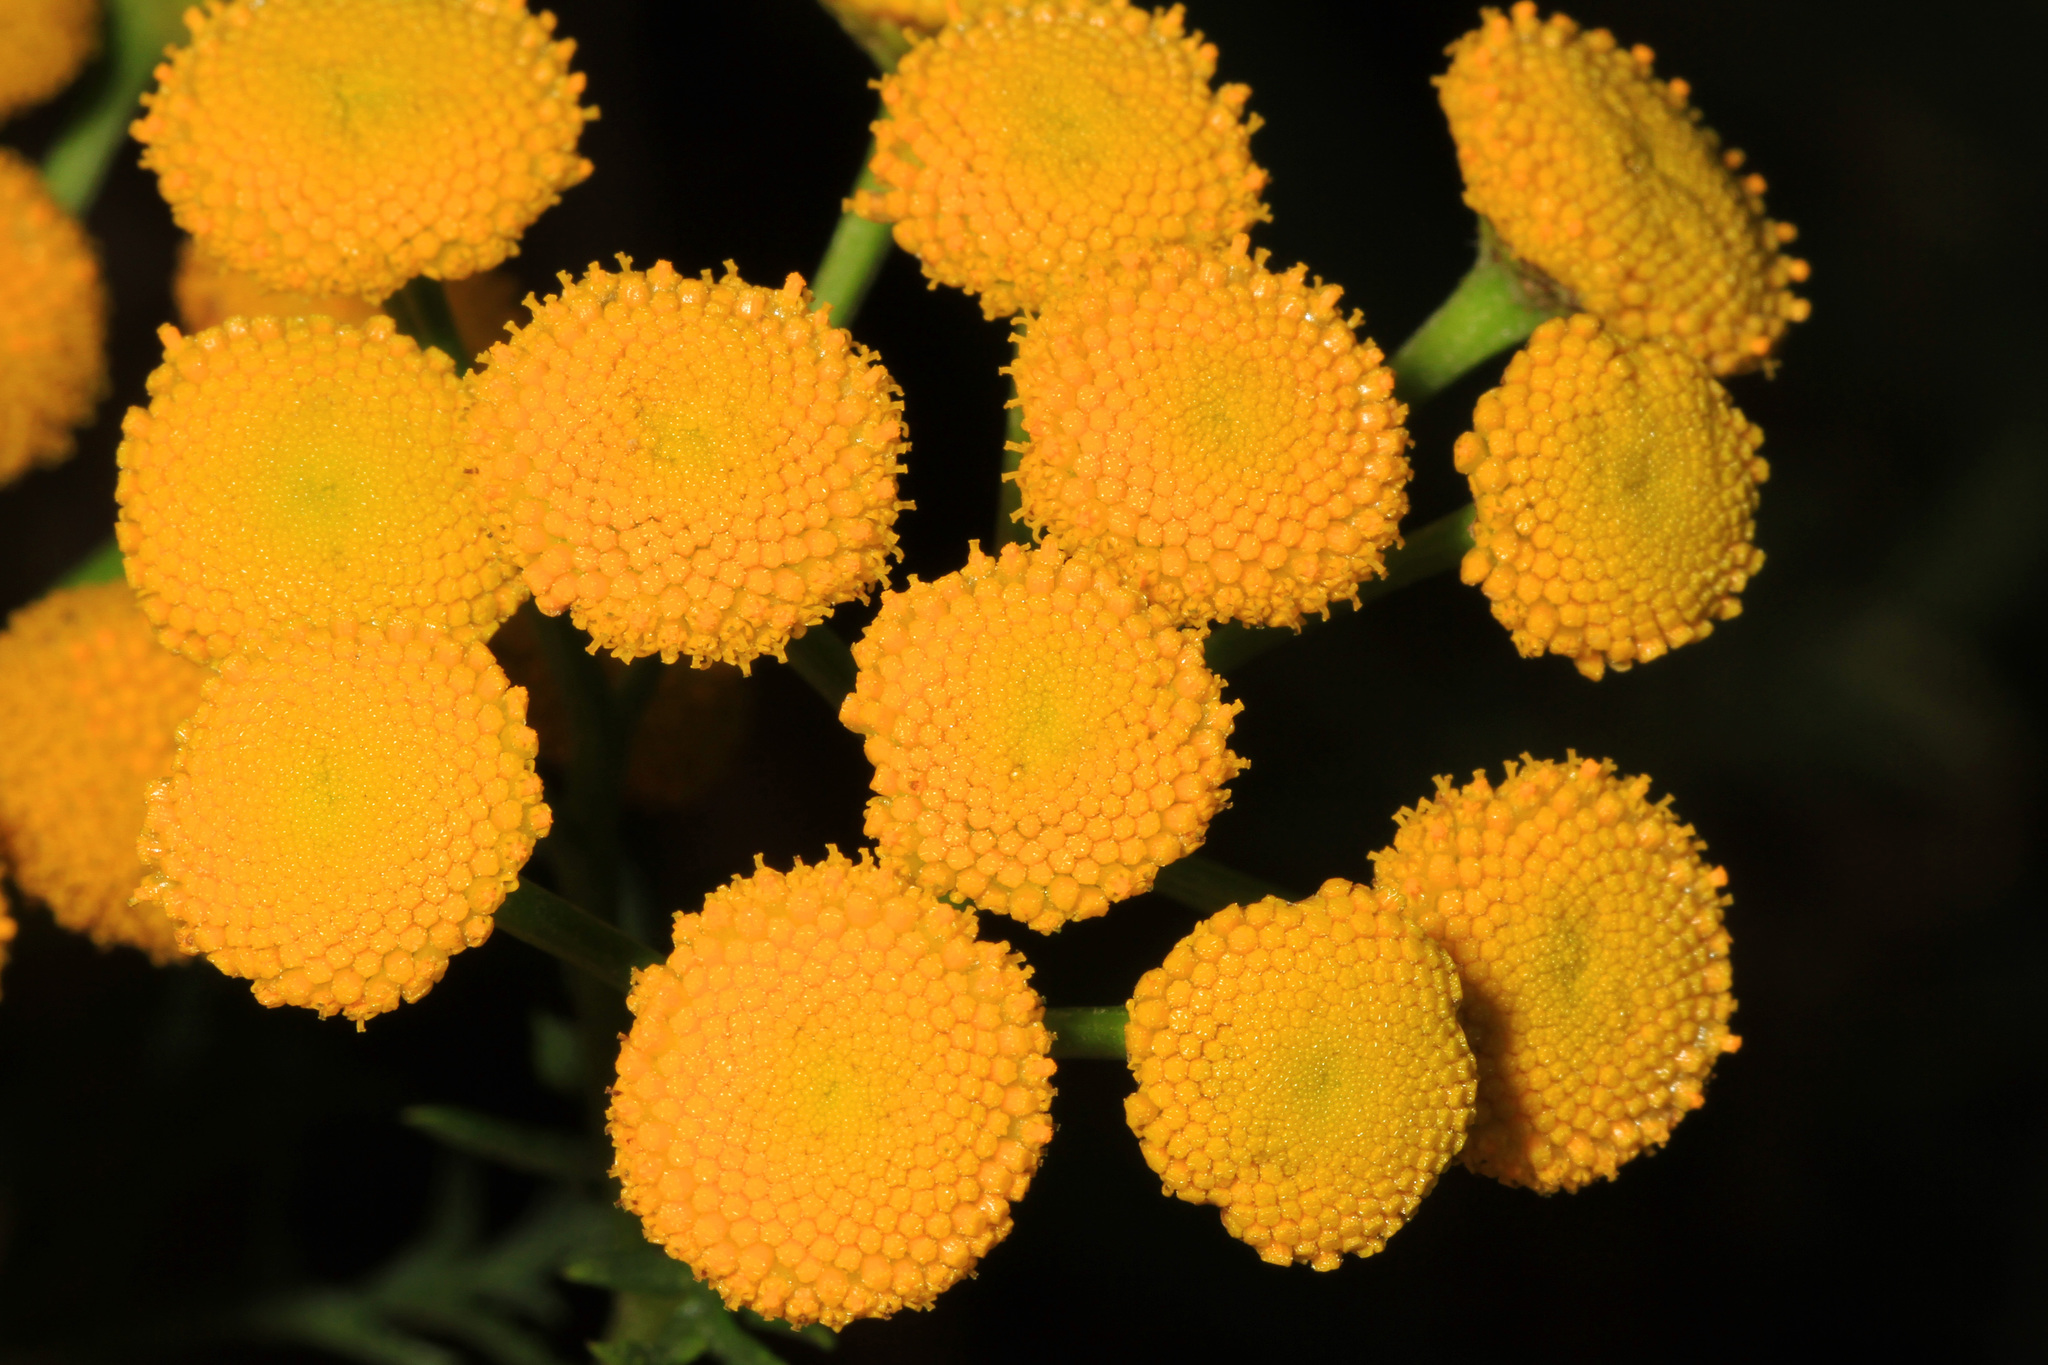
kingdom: Plantae
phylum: Tracheophyta
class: Magnoliopsida
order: Asterales
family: Asteraceae
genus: Tanacetum
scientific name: Tanacetum vulgare
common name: Common tansy
